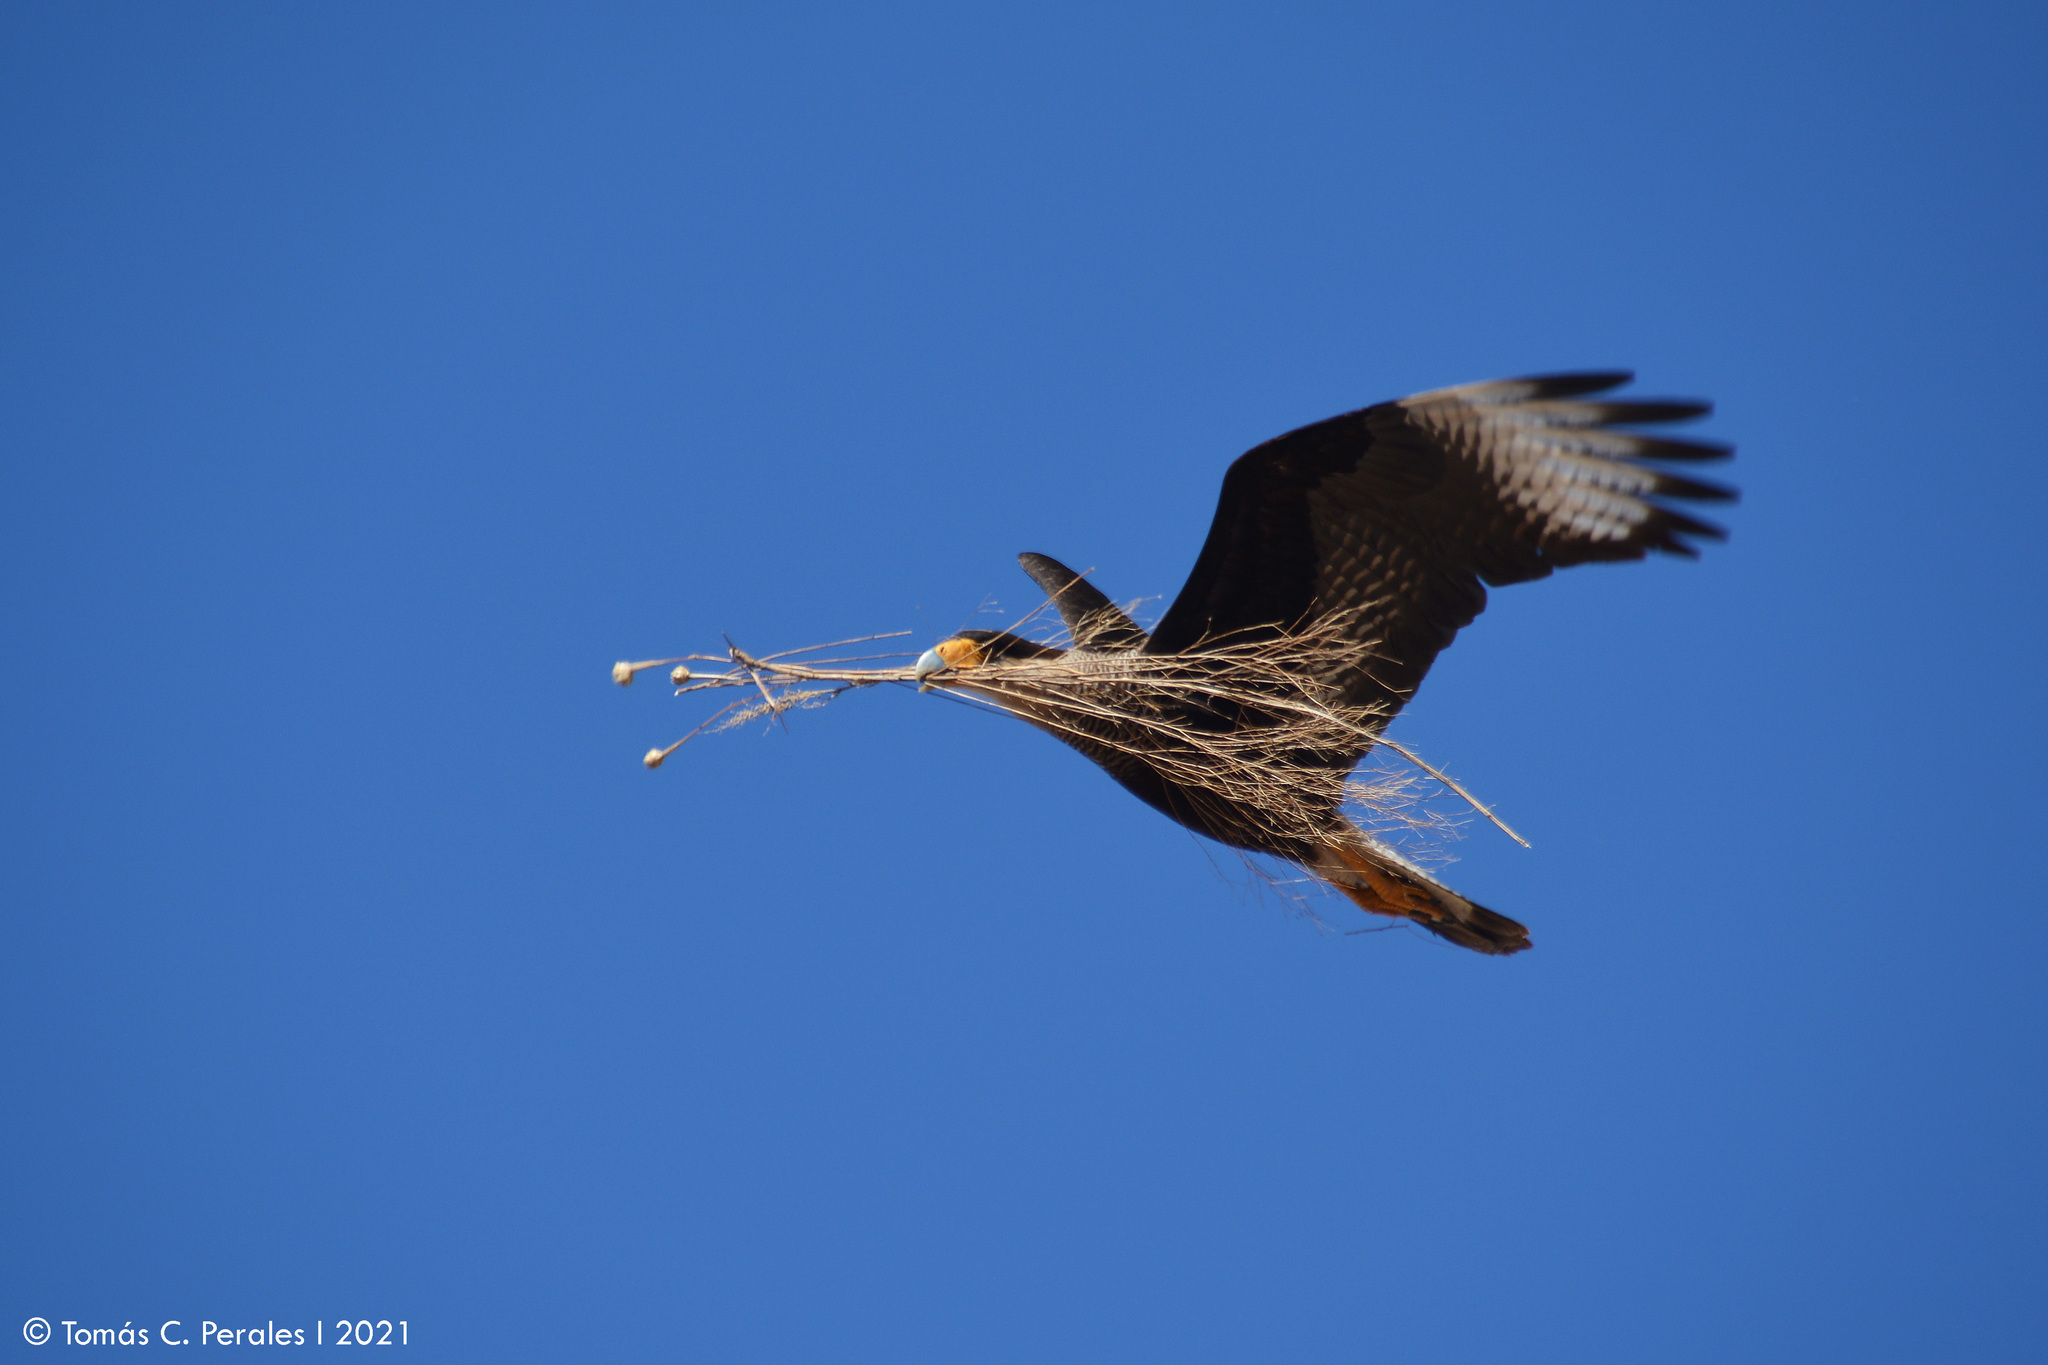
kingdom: Animalia
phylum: Chordata
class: Aves
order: Falconiformes
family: Falconidae
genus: Caracara
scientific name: Caracara plancus
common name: Southern caracara
